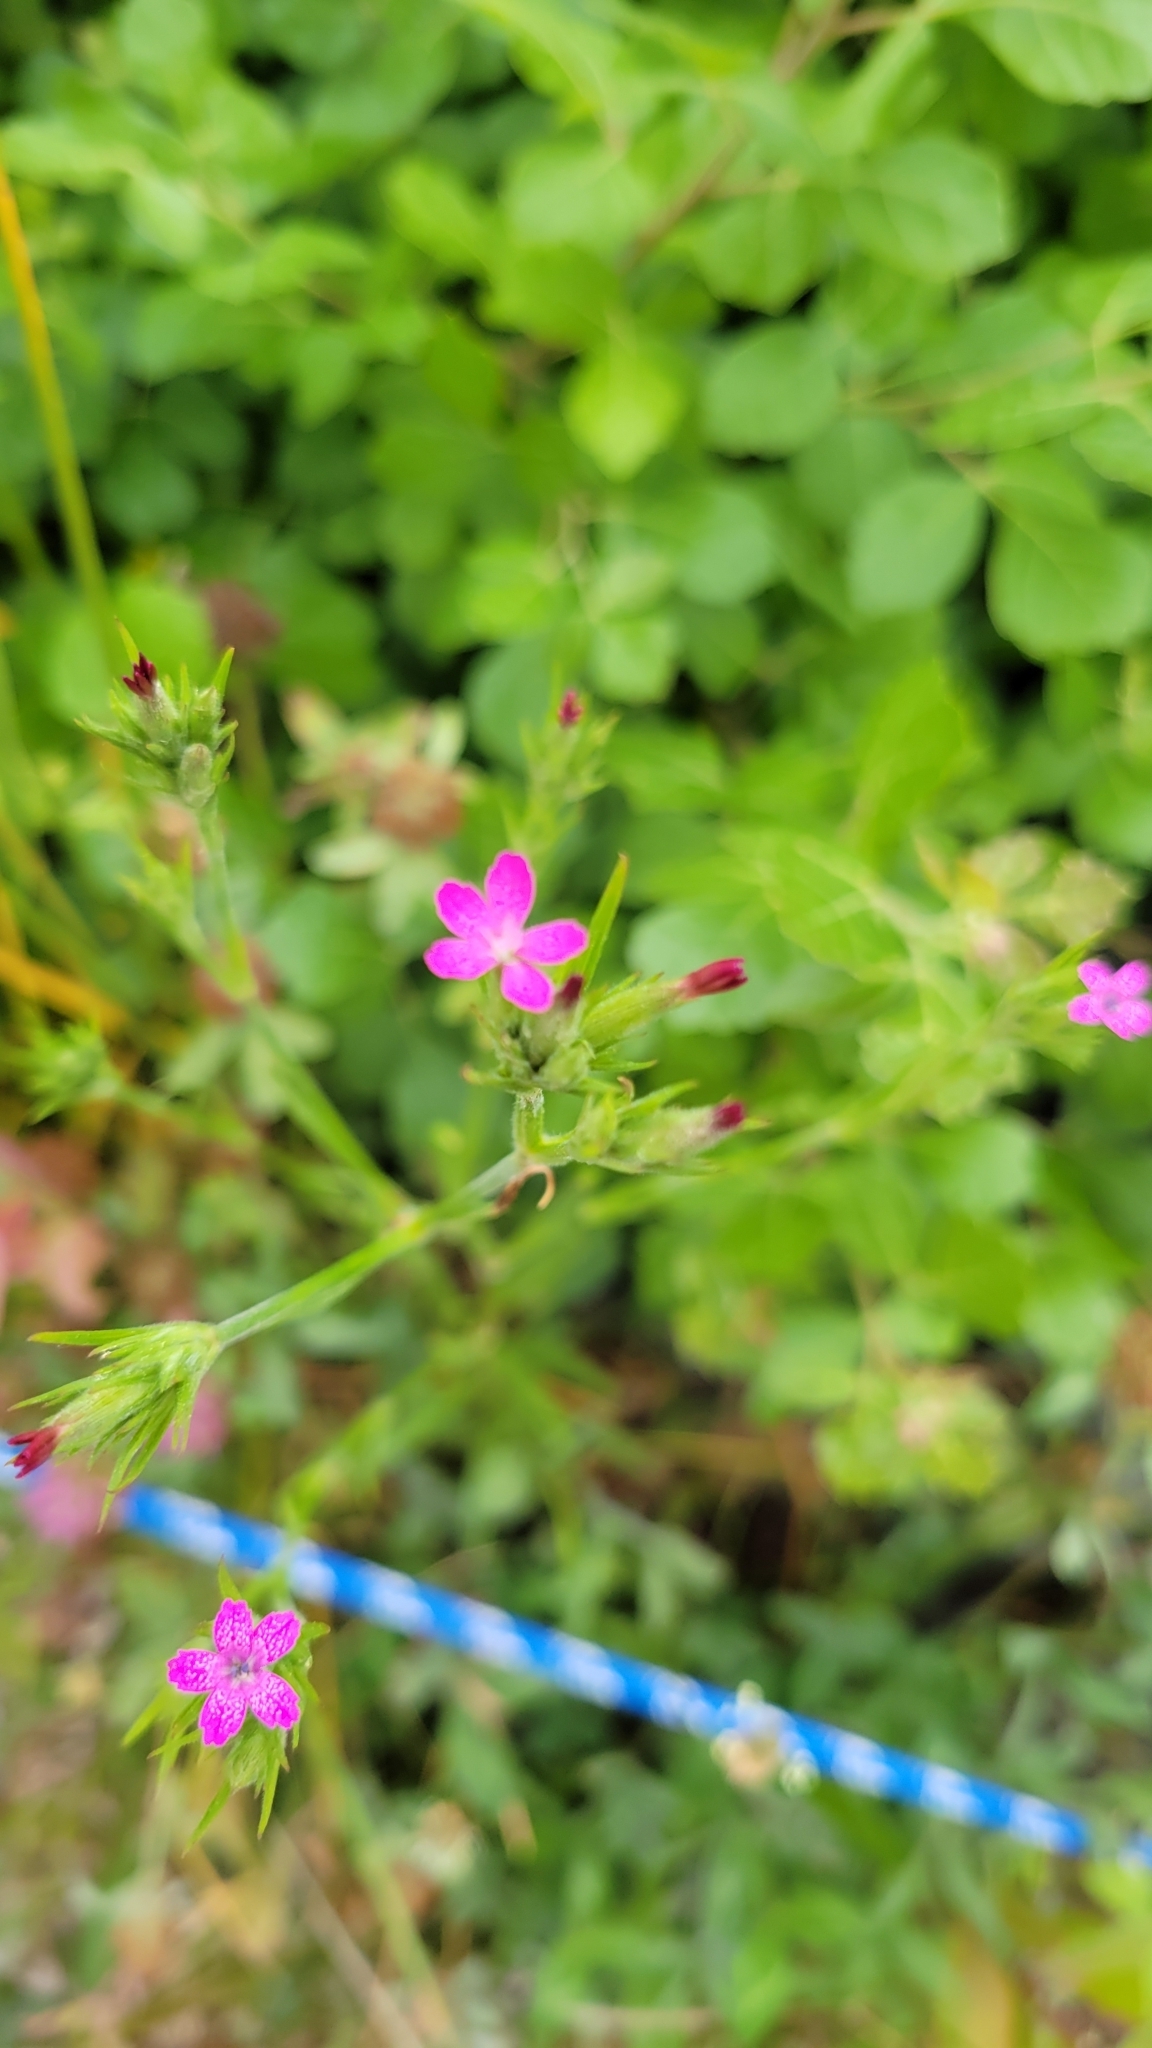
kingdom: Plantae
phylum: Tracheophyta
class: Magnoliopsida
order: Caryophyllales
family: Caryophyllaceae
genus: Dianthus
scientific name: Dianthus armeria
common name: Deptford pink
